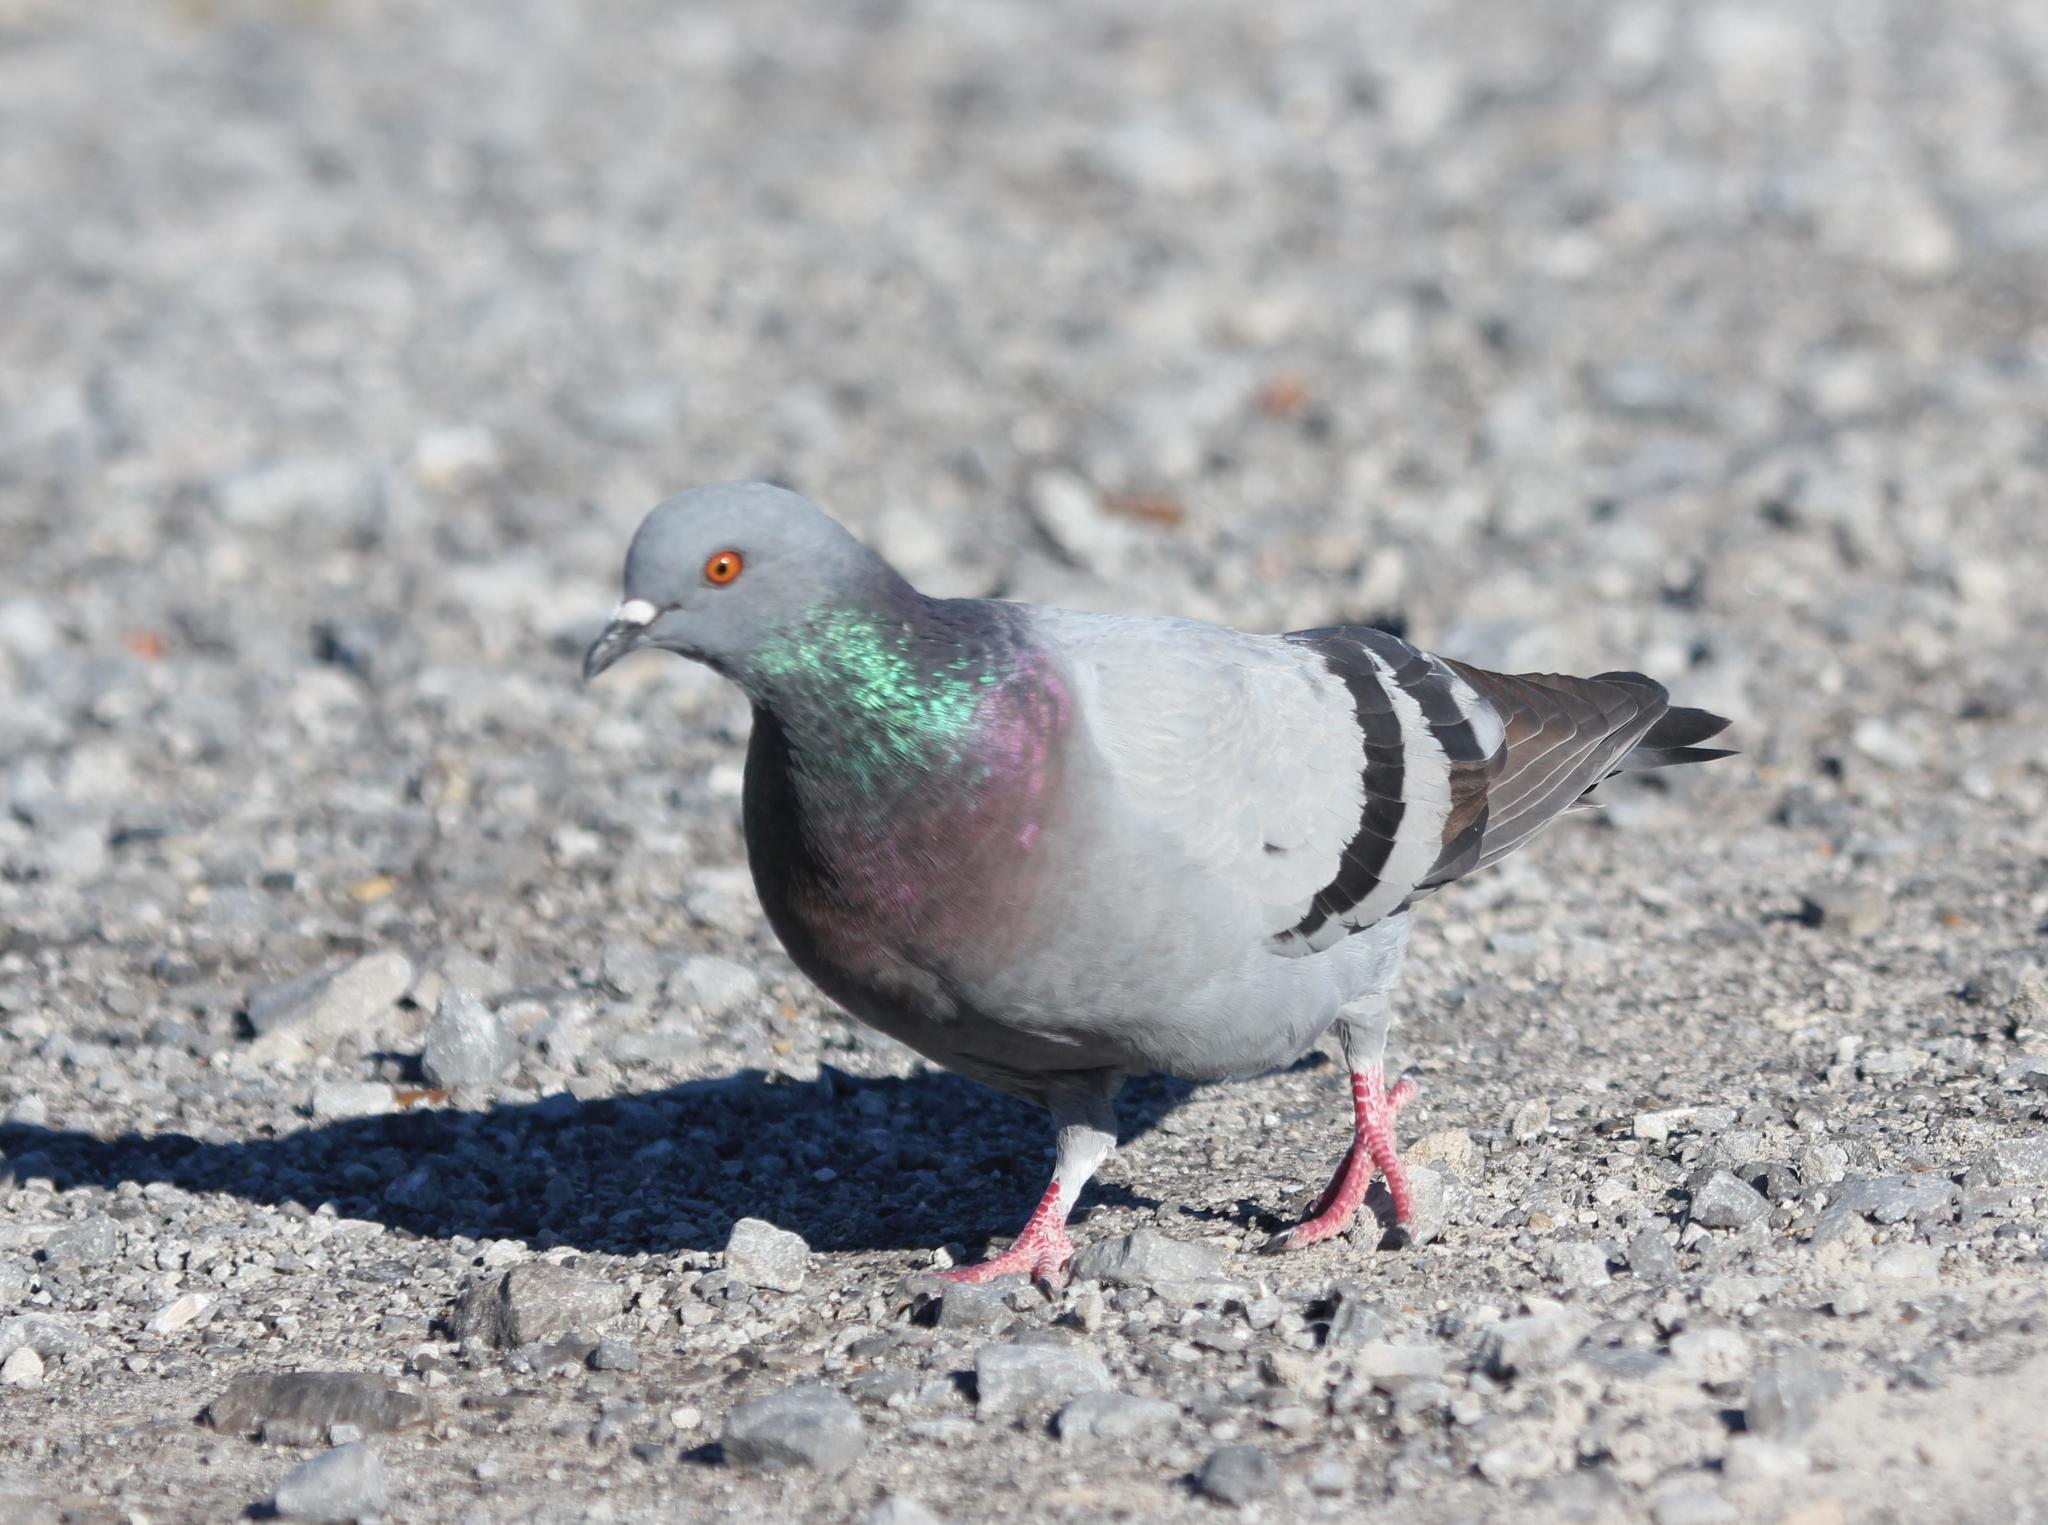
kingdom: Animalia
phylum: Chordata
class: Aves
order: Columbiformes
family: Columbidae
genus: Columba
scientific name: Columba livia
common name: Rock pigeon
